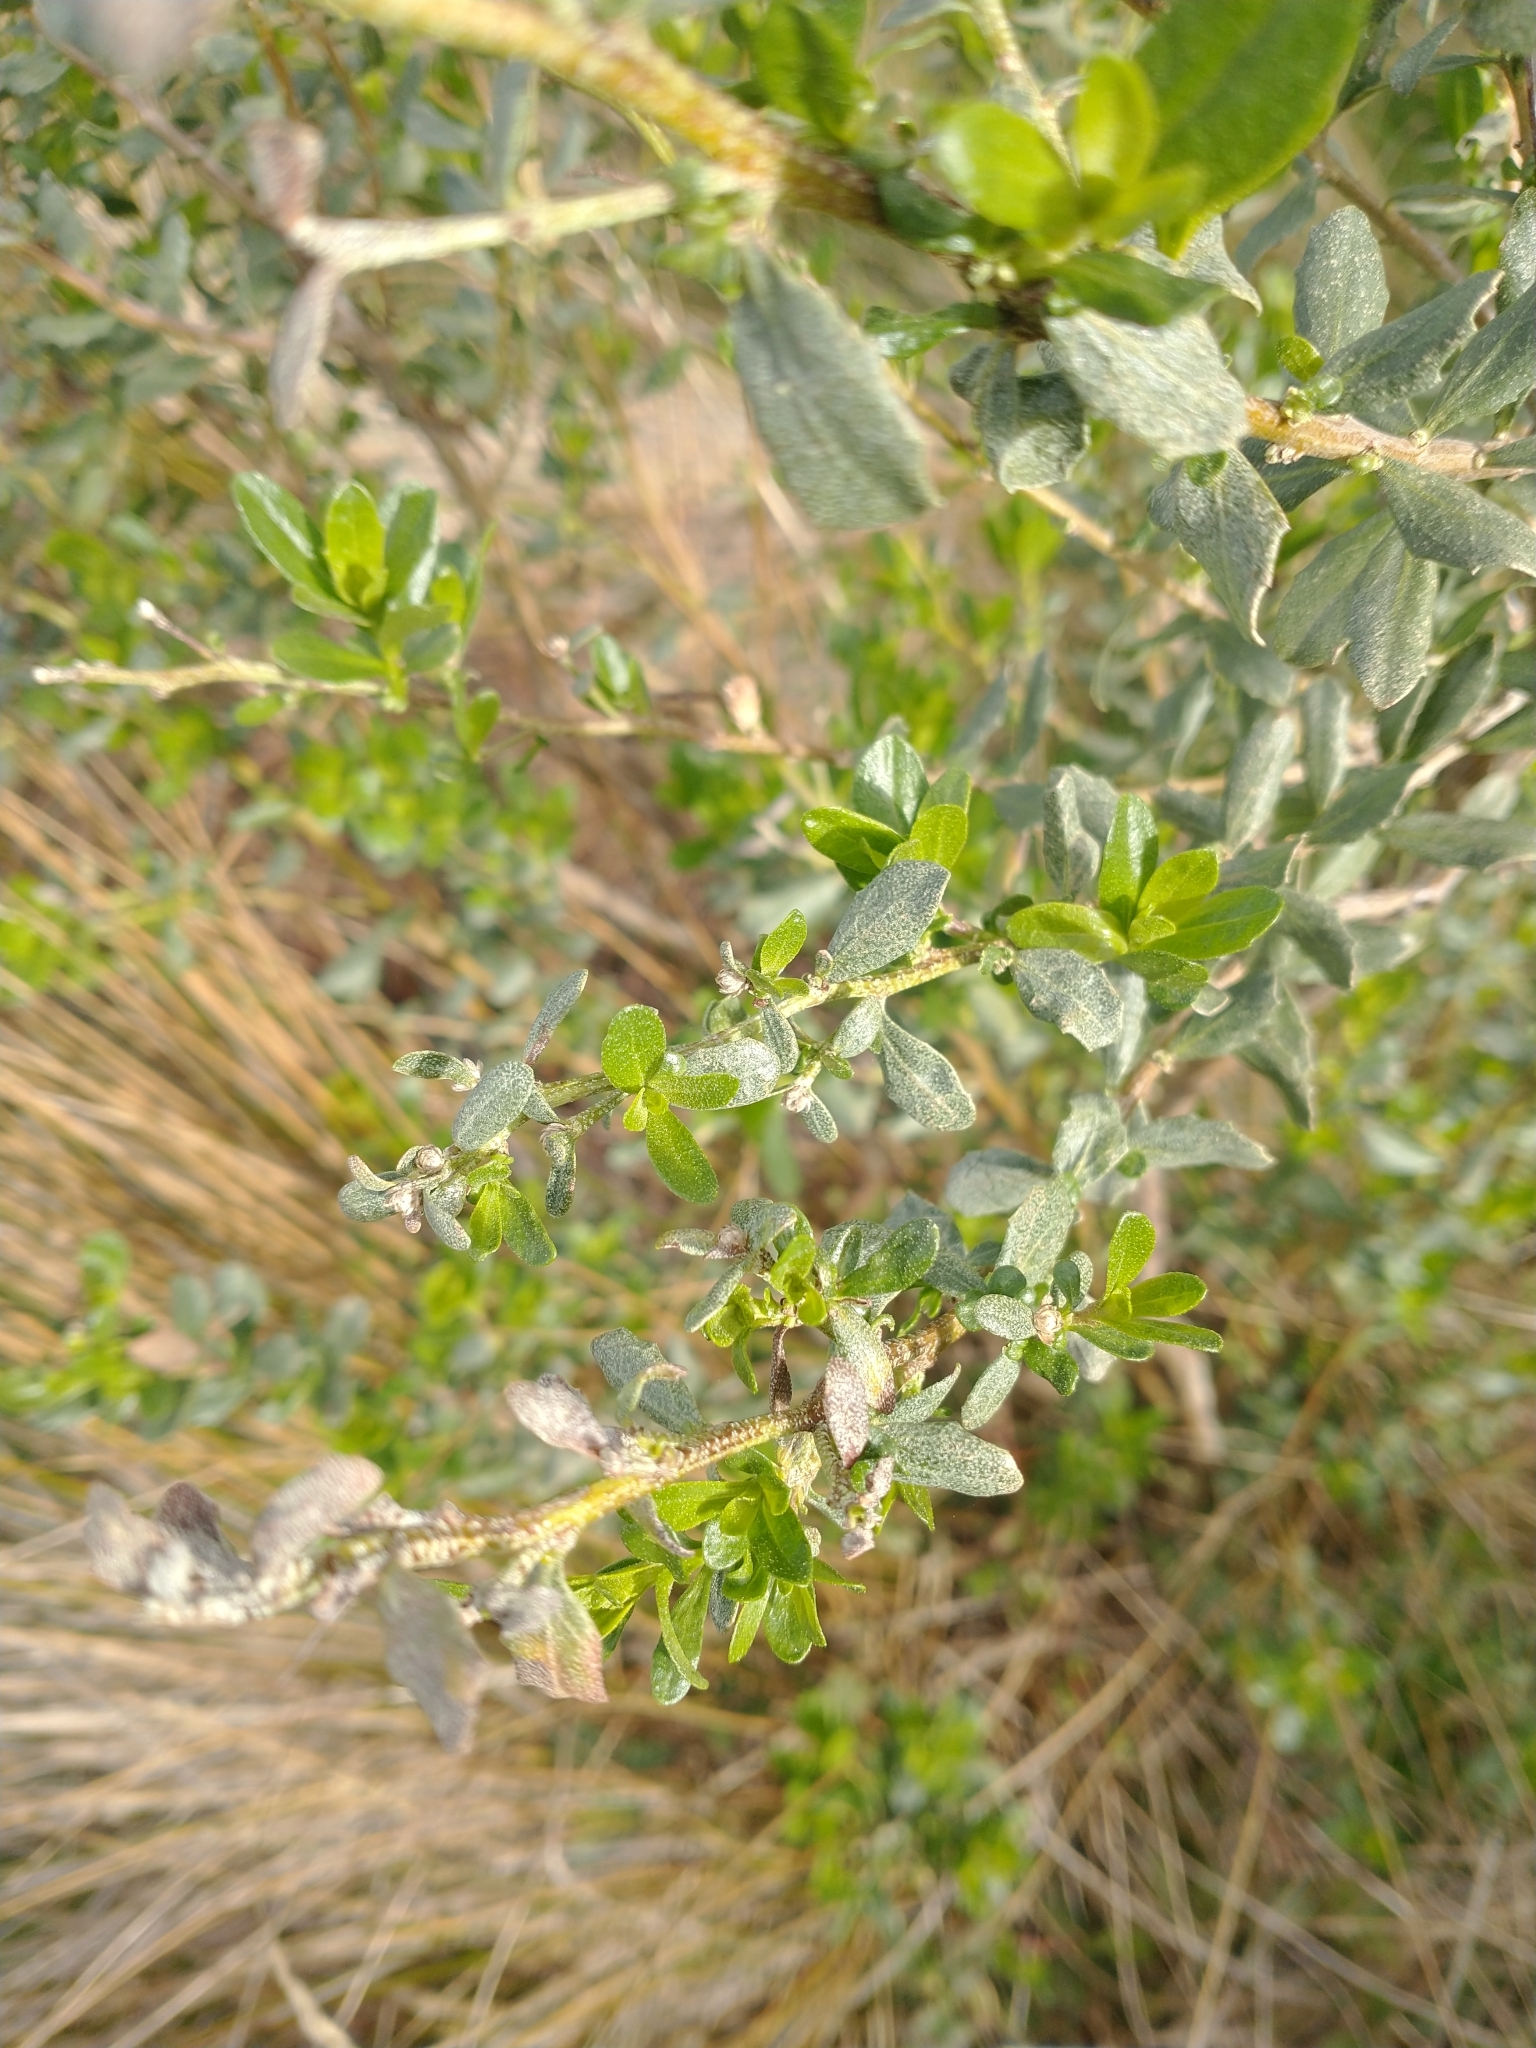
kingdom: Plantae
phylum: Tracheophyta
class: Magnoliopsida
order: Asterales
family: Asteraceae
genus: Baccharis
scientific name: Baccharis pilularis
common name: Coyotebrush
